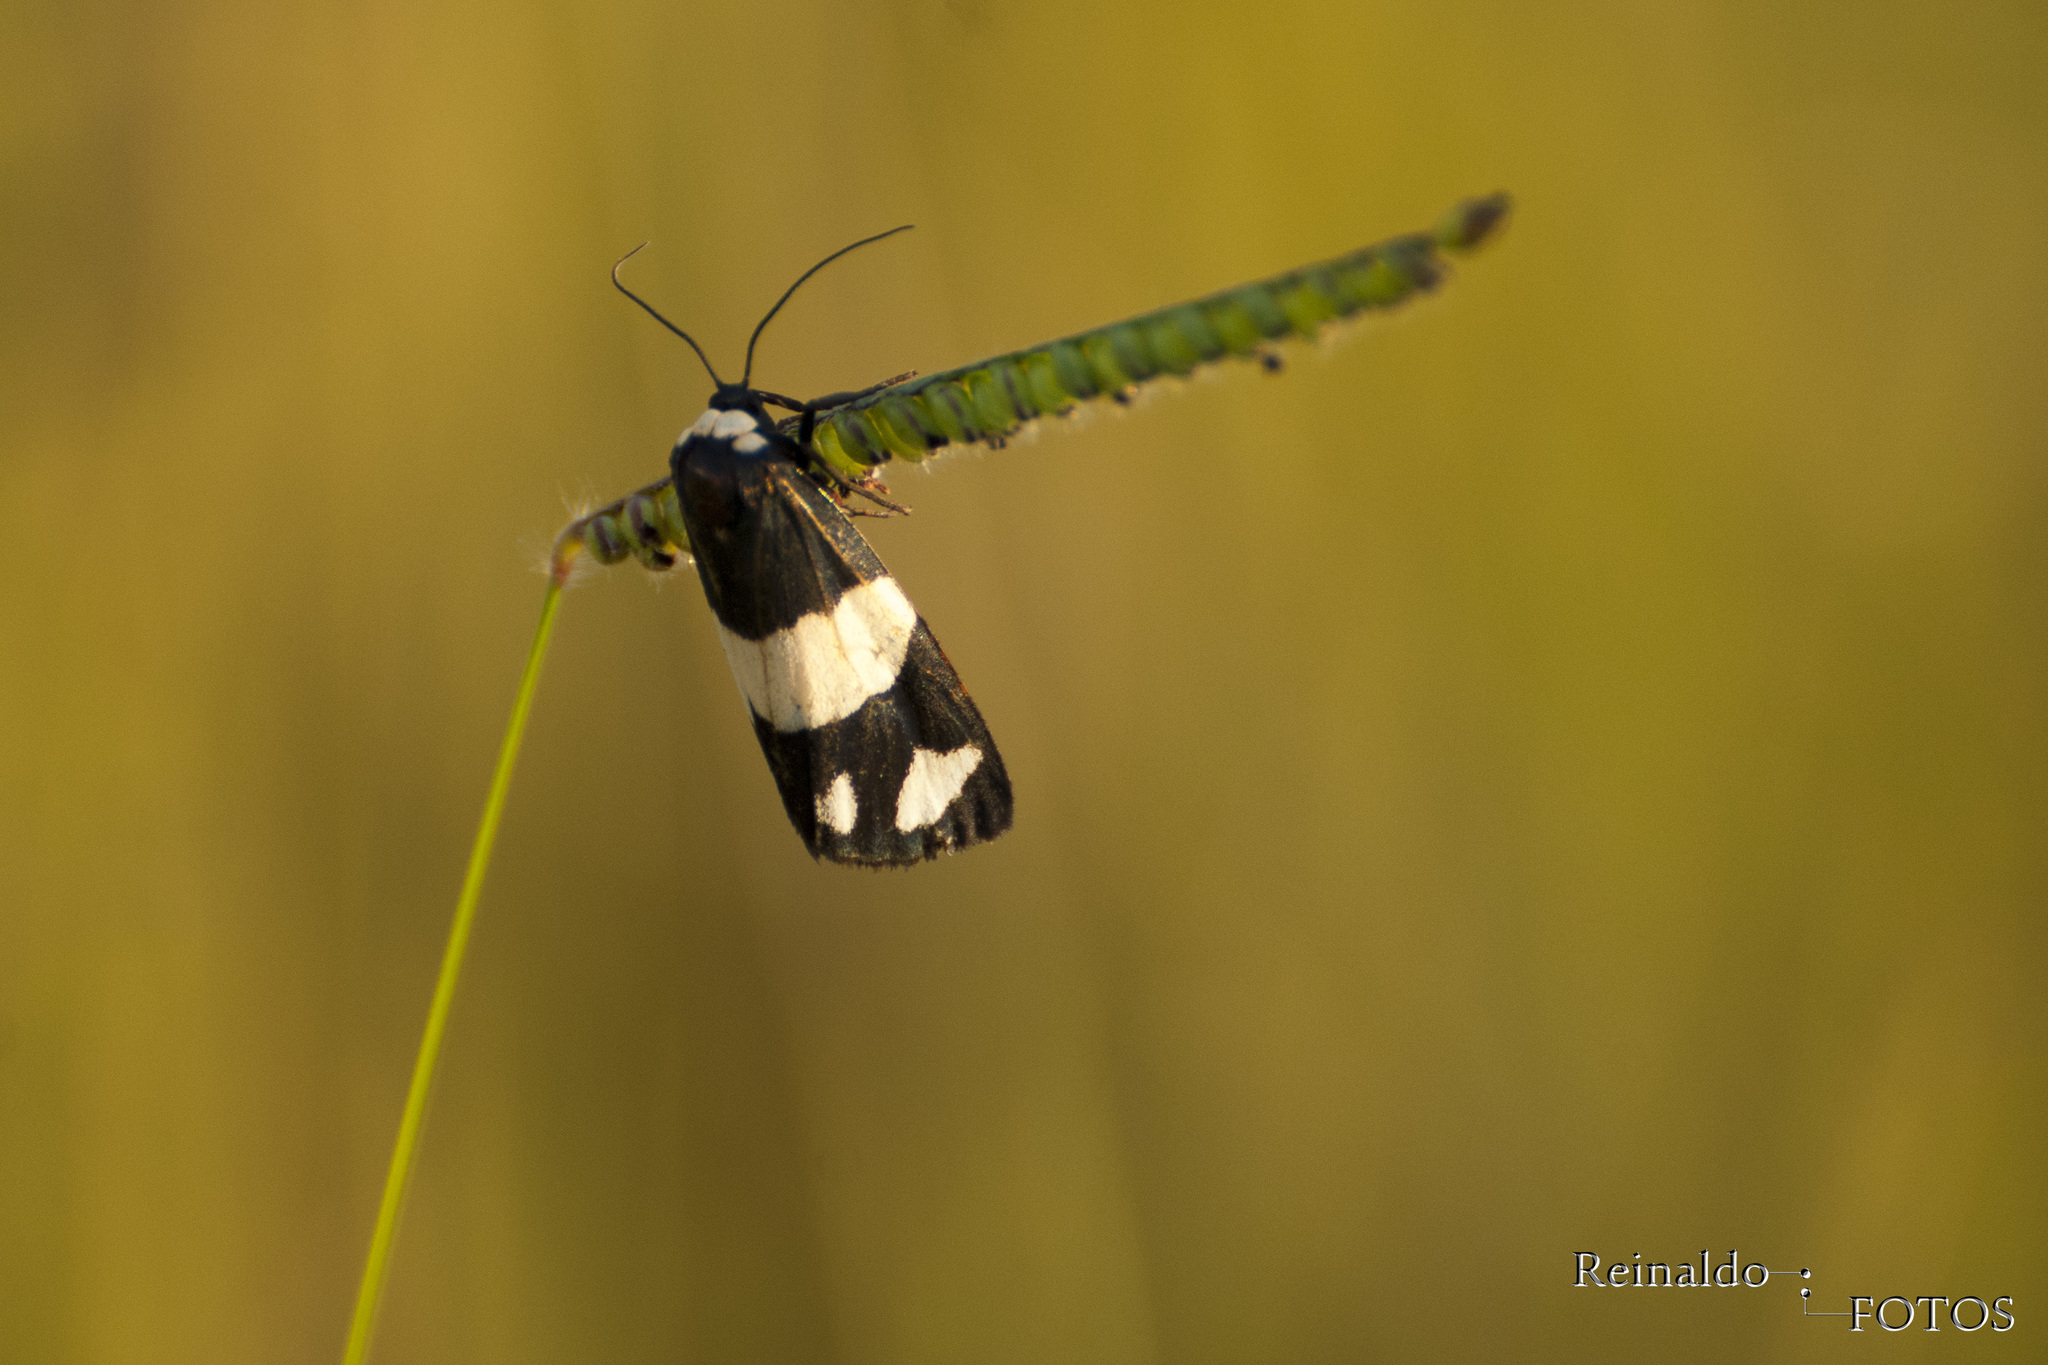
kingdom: Animalia
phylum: Arthropoda
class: Insecta
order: Lepidoptera
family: Erebidae
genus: Eudesmia
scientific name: Eudesmia ruficollis
